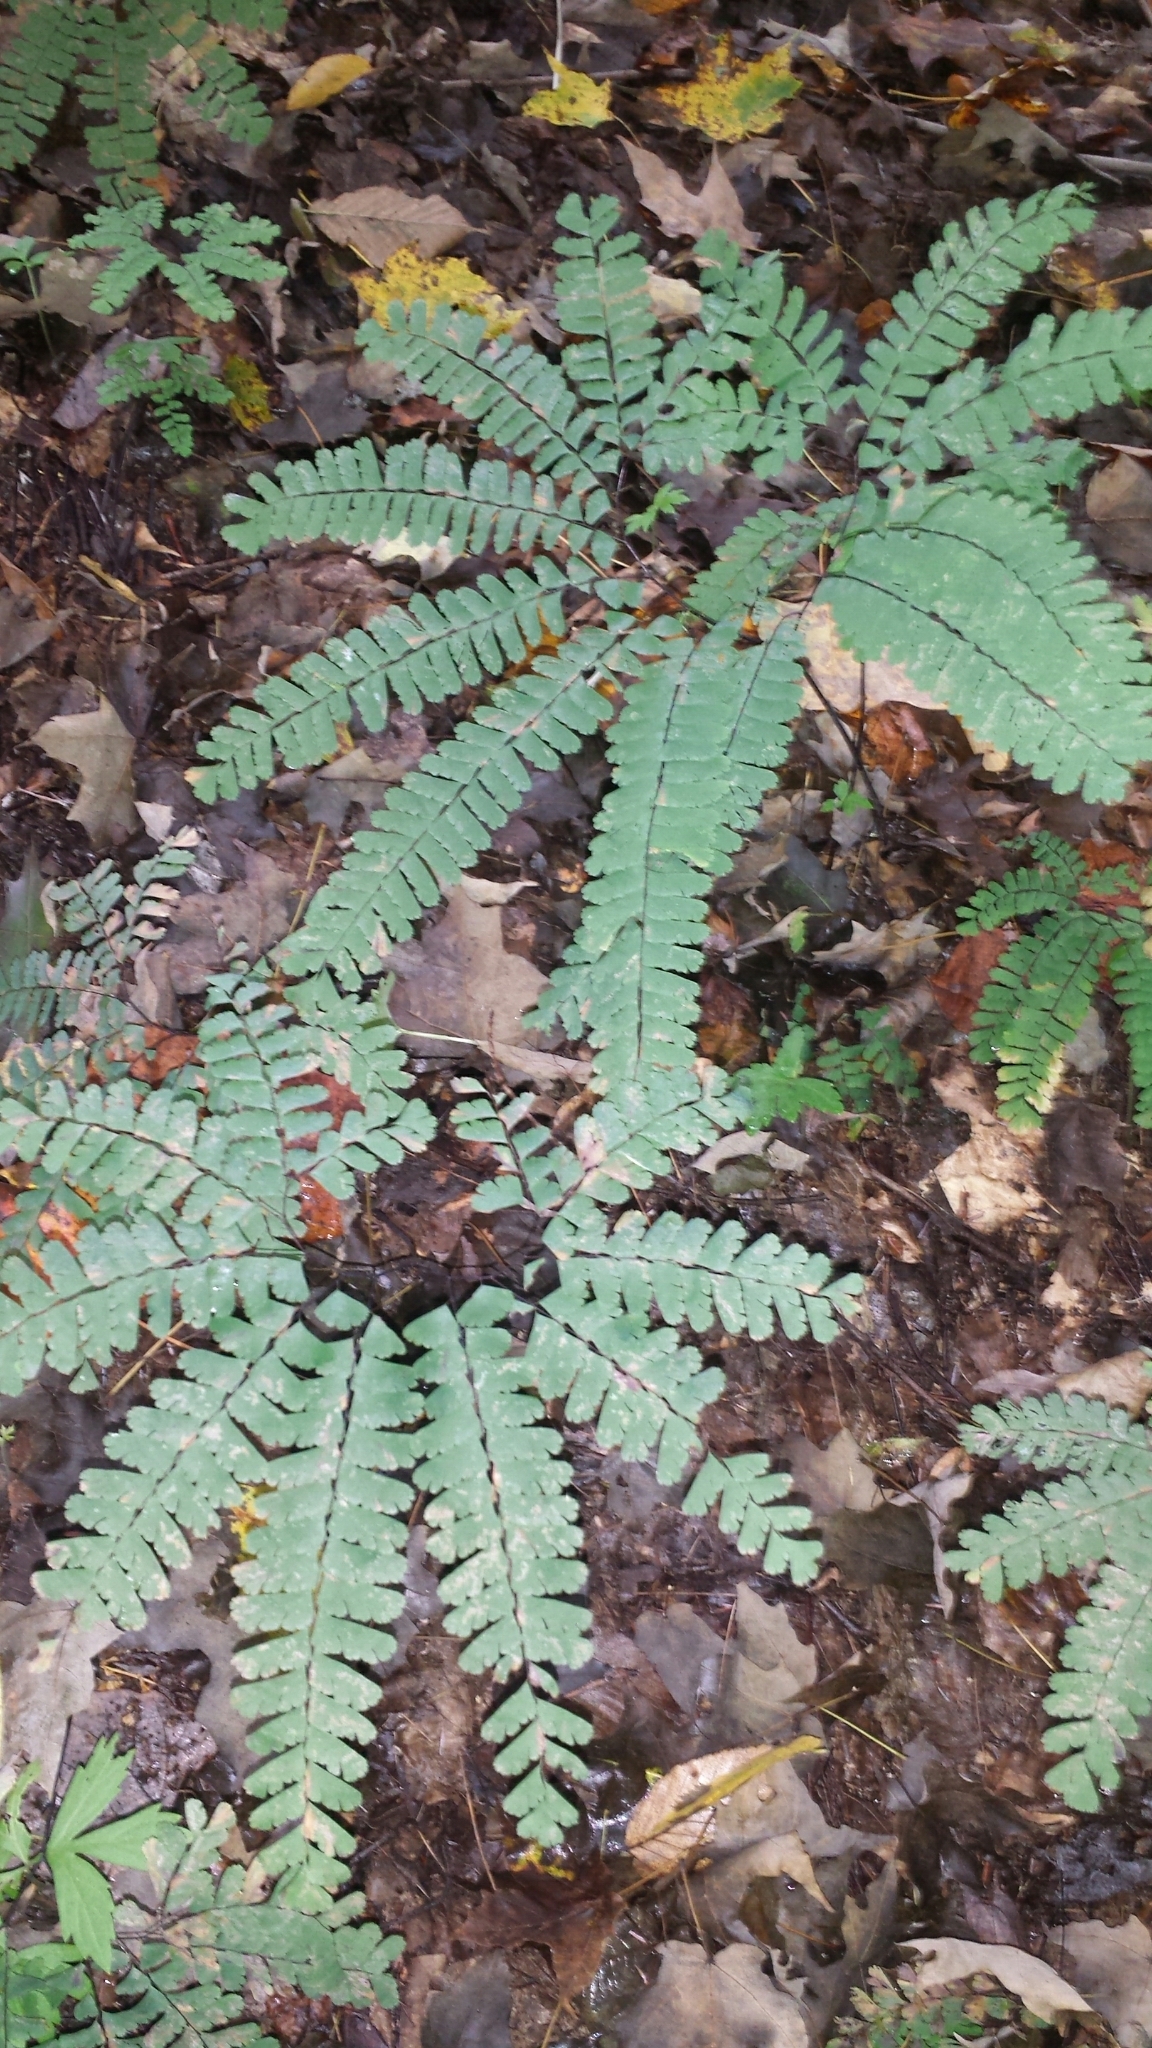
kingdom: Plantae
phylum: Tracheophyta
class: Polypodiopsida
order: Polypodiales
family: Pteridaceae
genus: Adiantum
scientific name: Adiantum pedatum
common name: Five-finger fern
